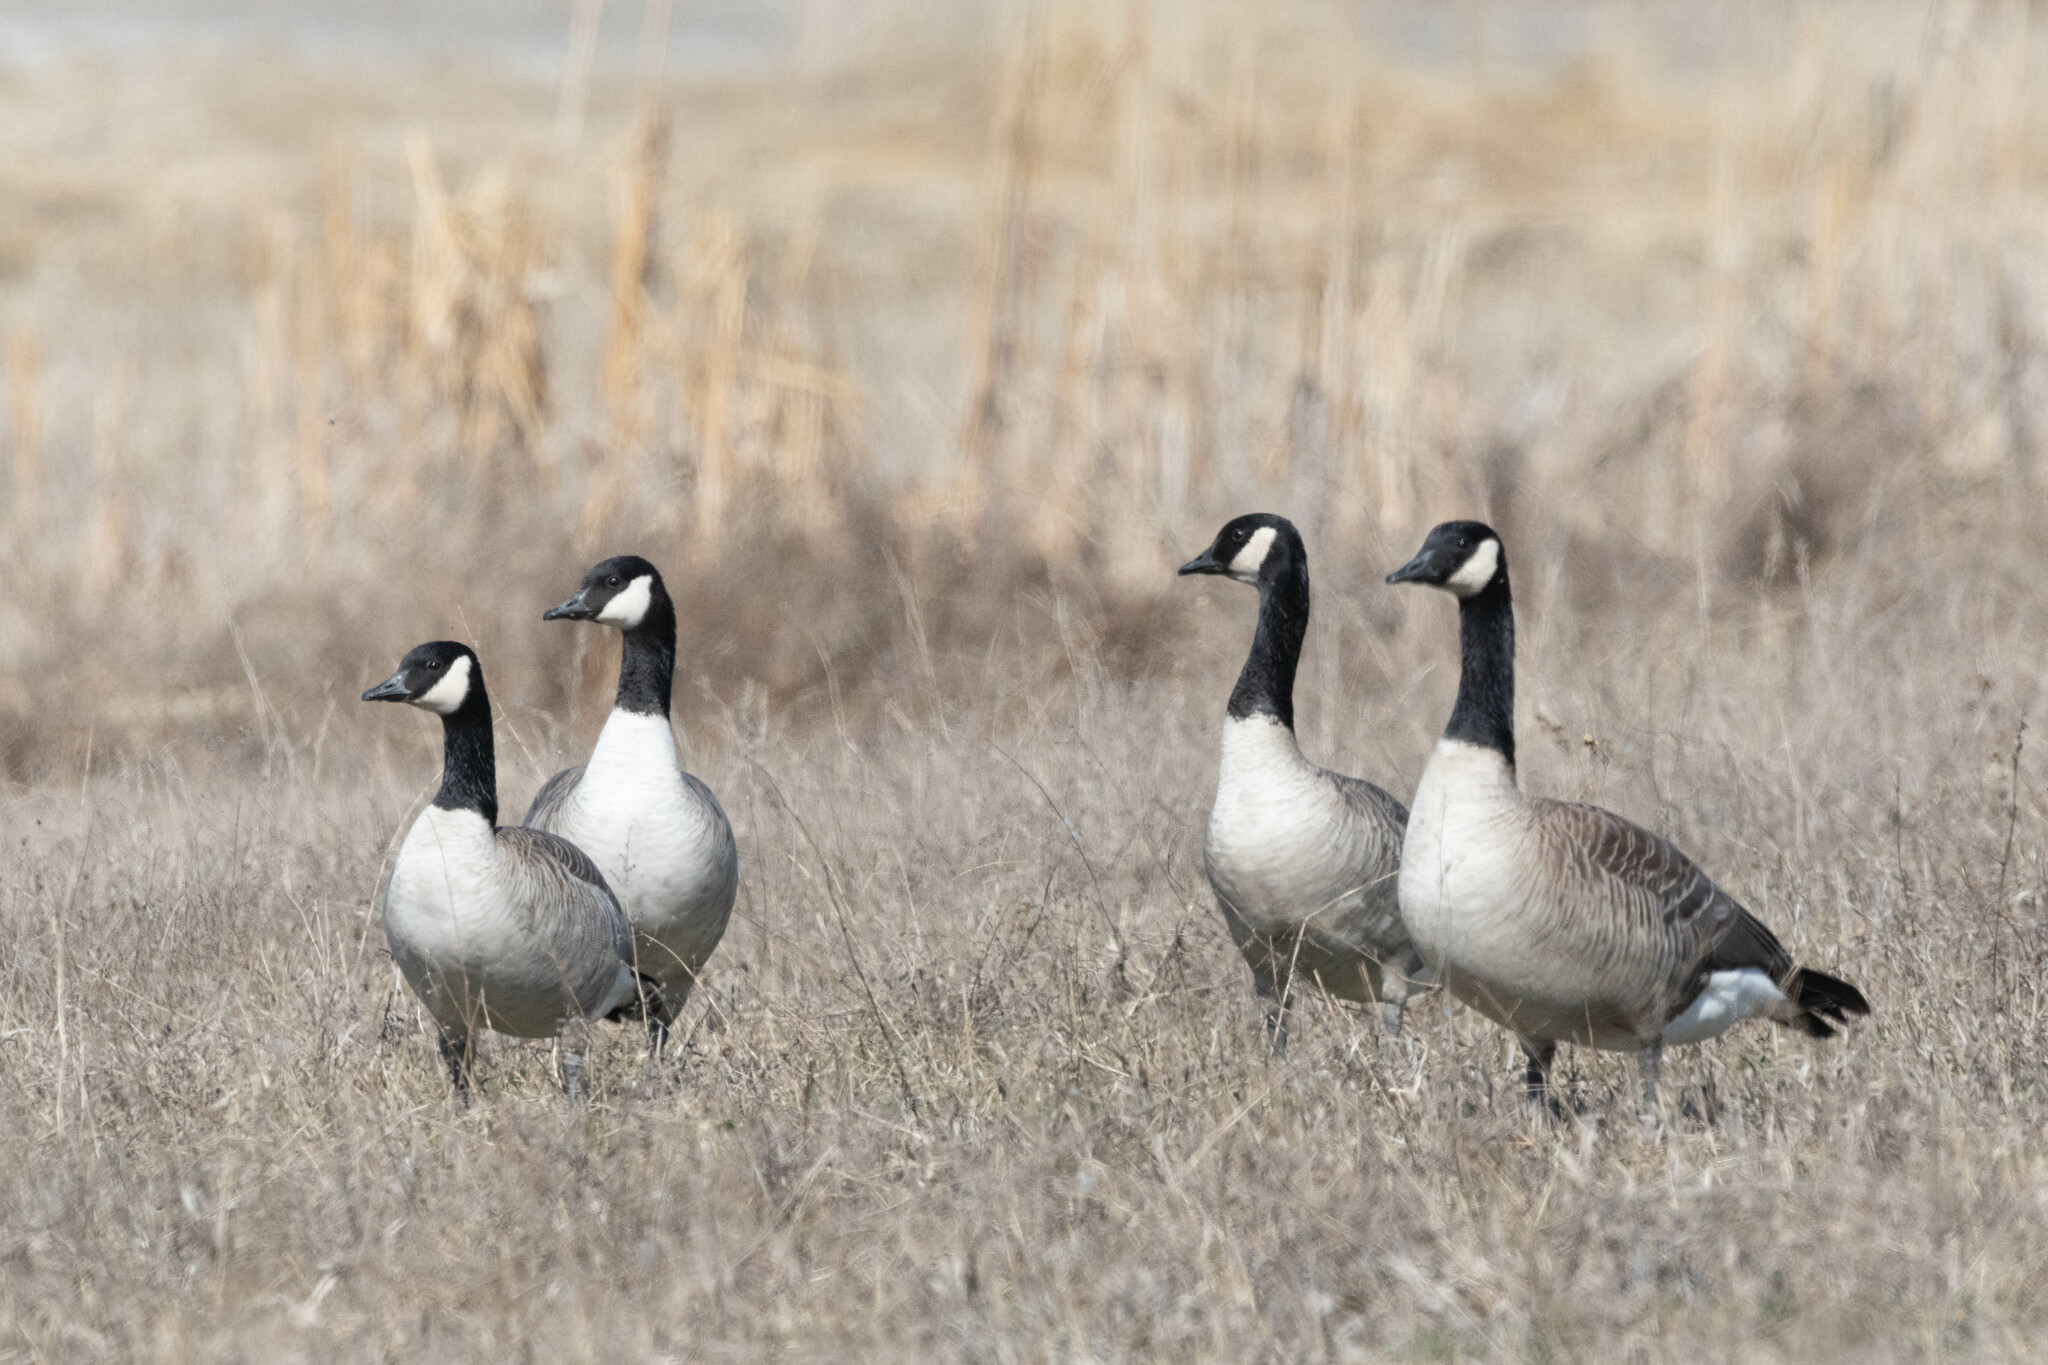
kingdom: Animalia
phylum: Chordata
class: Aves
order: Anseriformes
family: Anatidae
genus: Branta
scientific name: Branta hutchinsii
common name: Cackling goose
